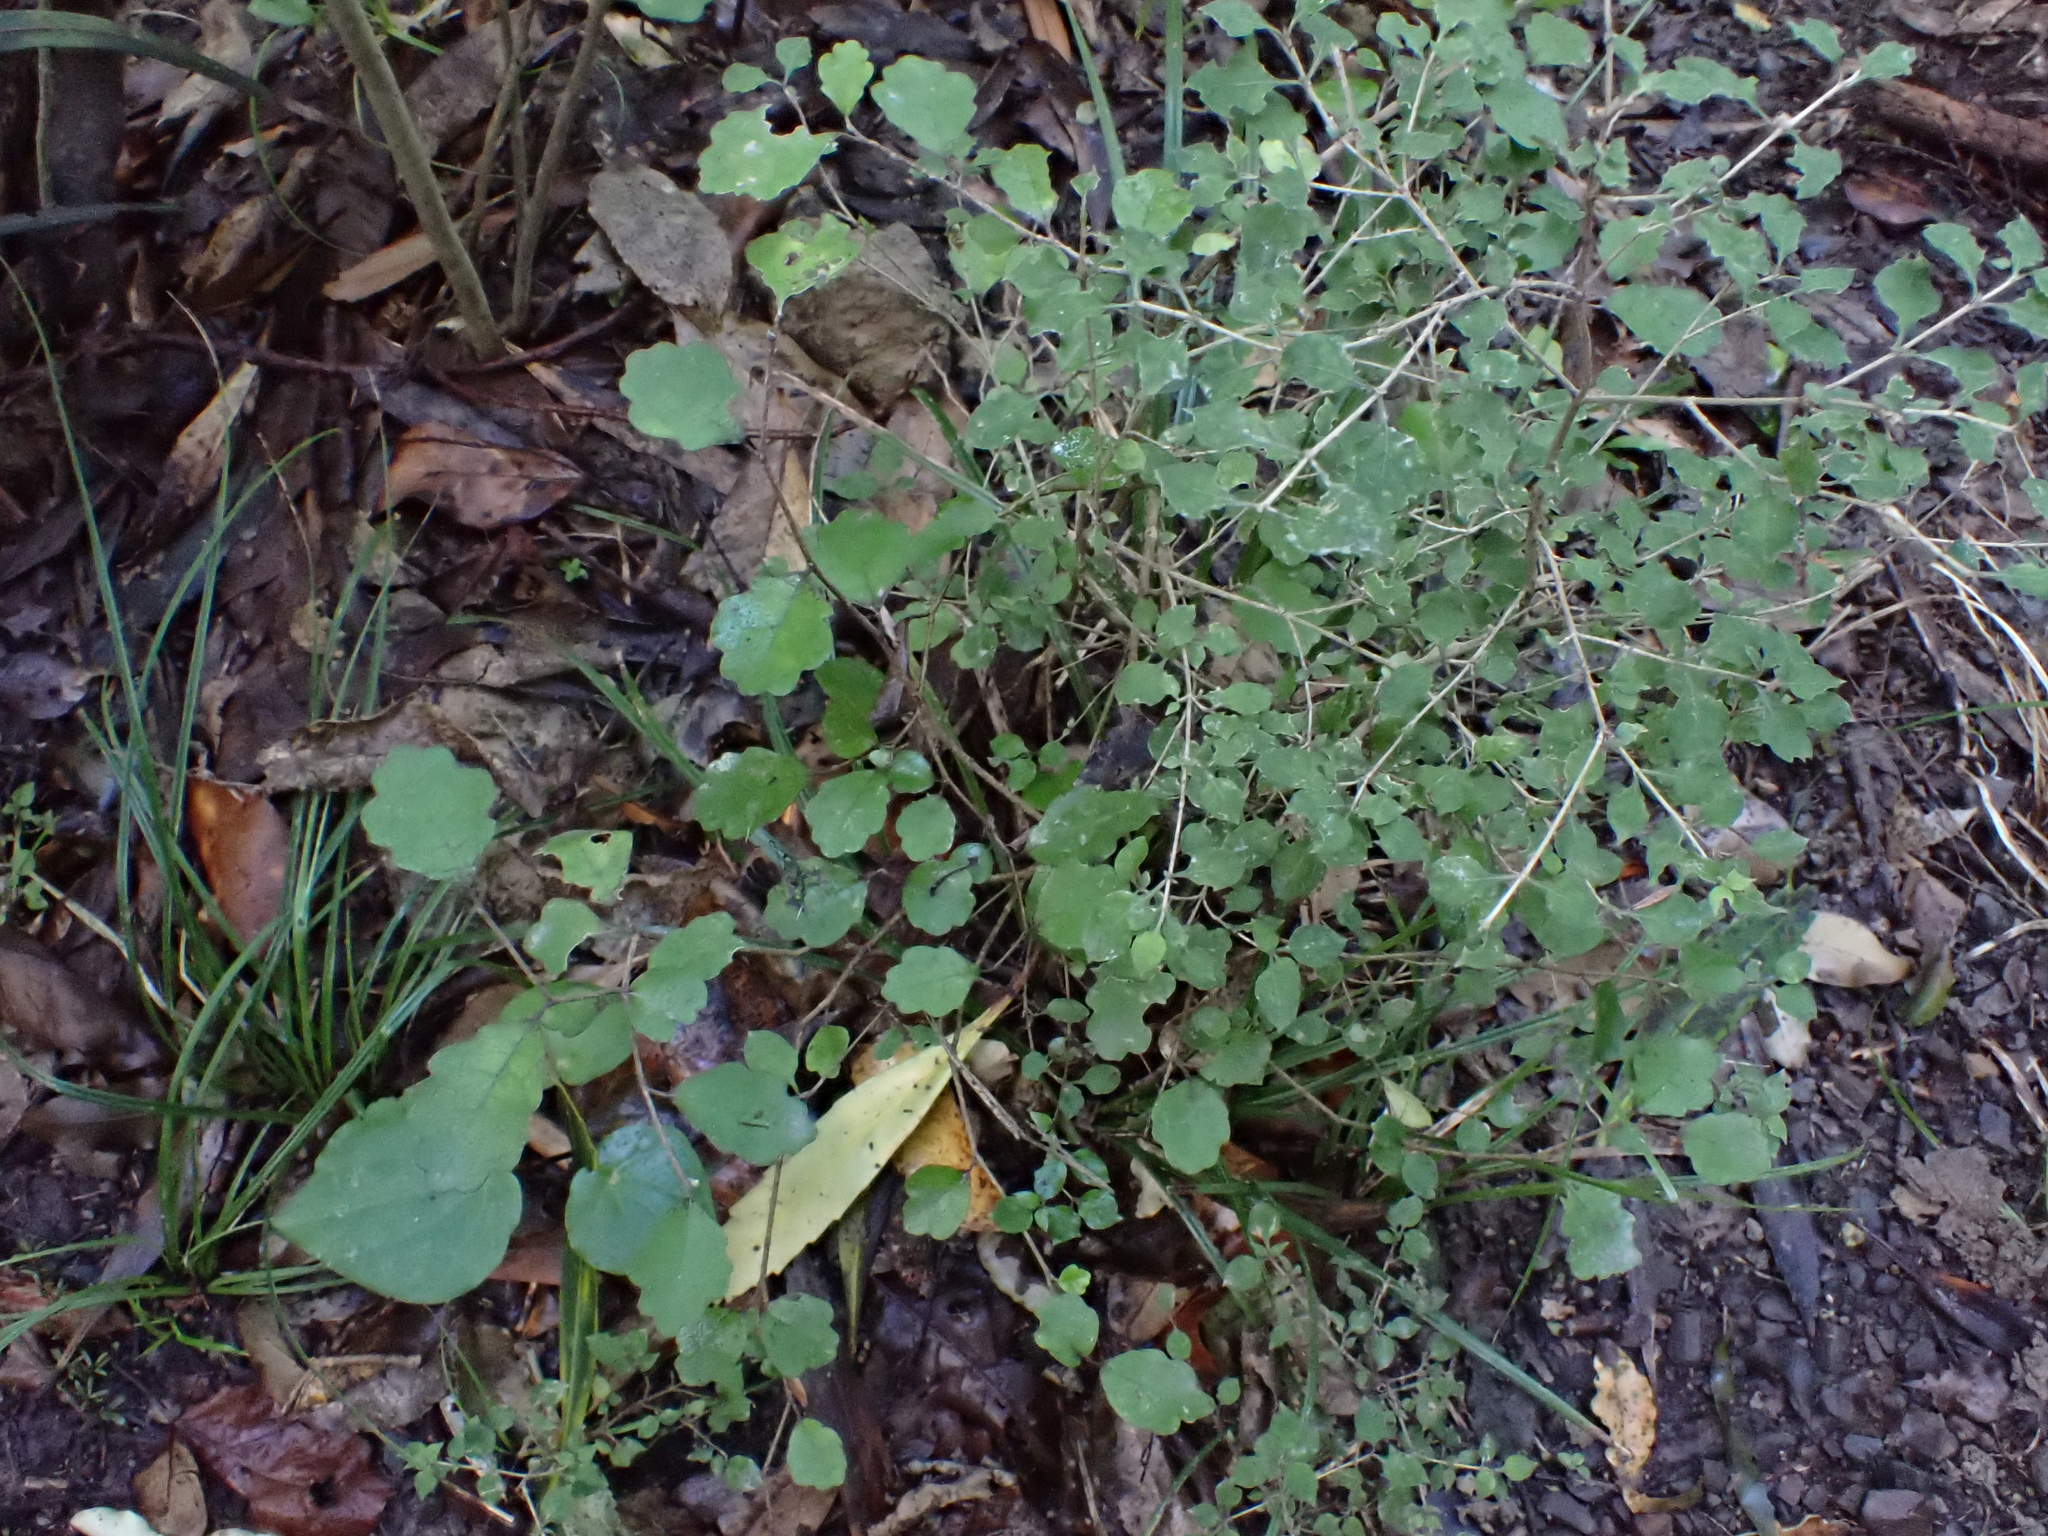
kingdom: Plantae
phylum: Tracheophyta
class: Magnoliopsida
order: Apiales
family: Pennantiaceae
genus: Pennantia
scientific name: Pennantia corymbosa
